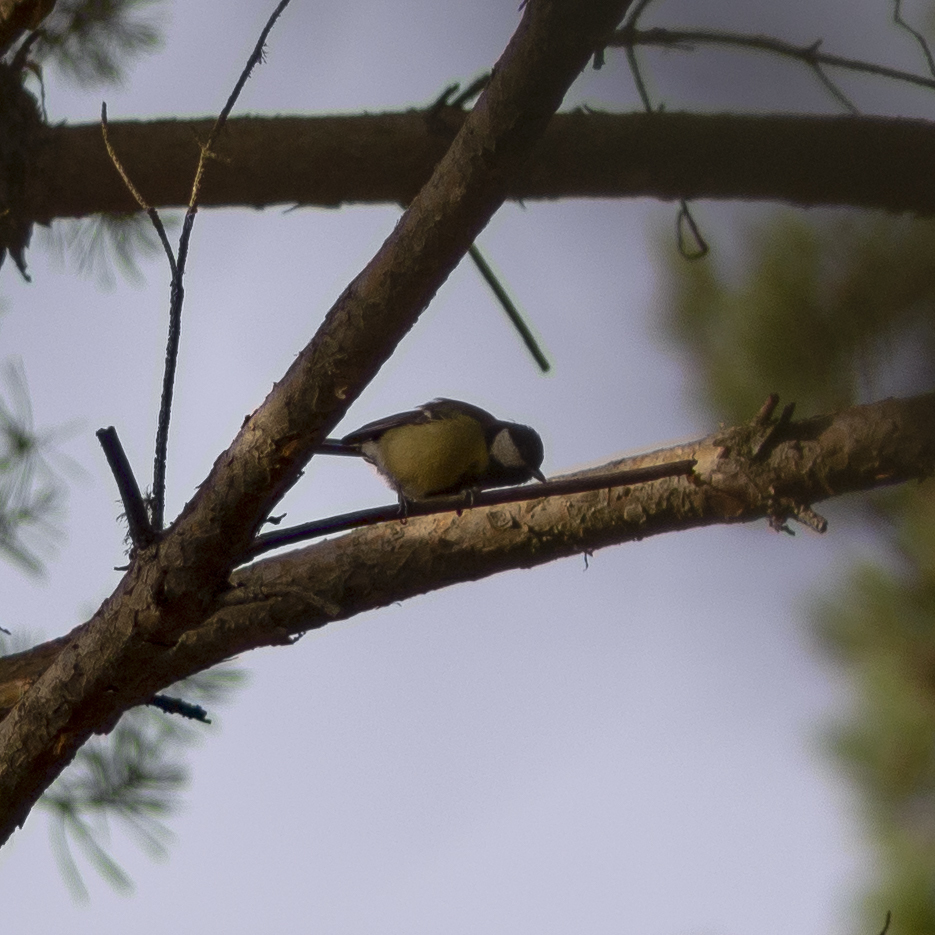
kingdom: Animalia
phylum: Chordata
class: Aves
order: Passeriformes
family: Paridae
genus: Parus
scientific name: Parus major
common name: Great tit
